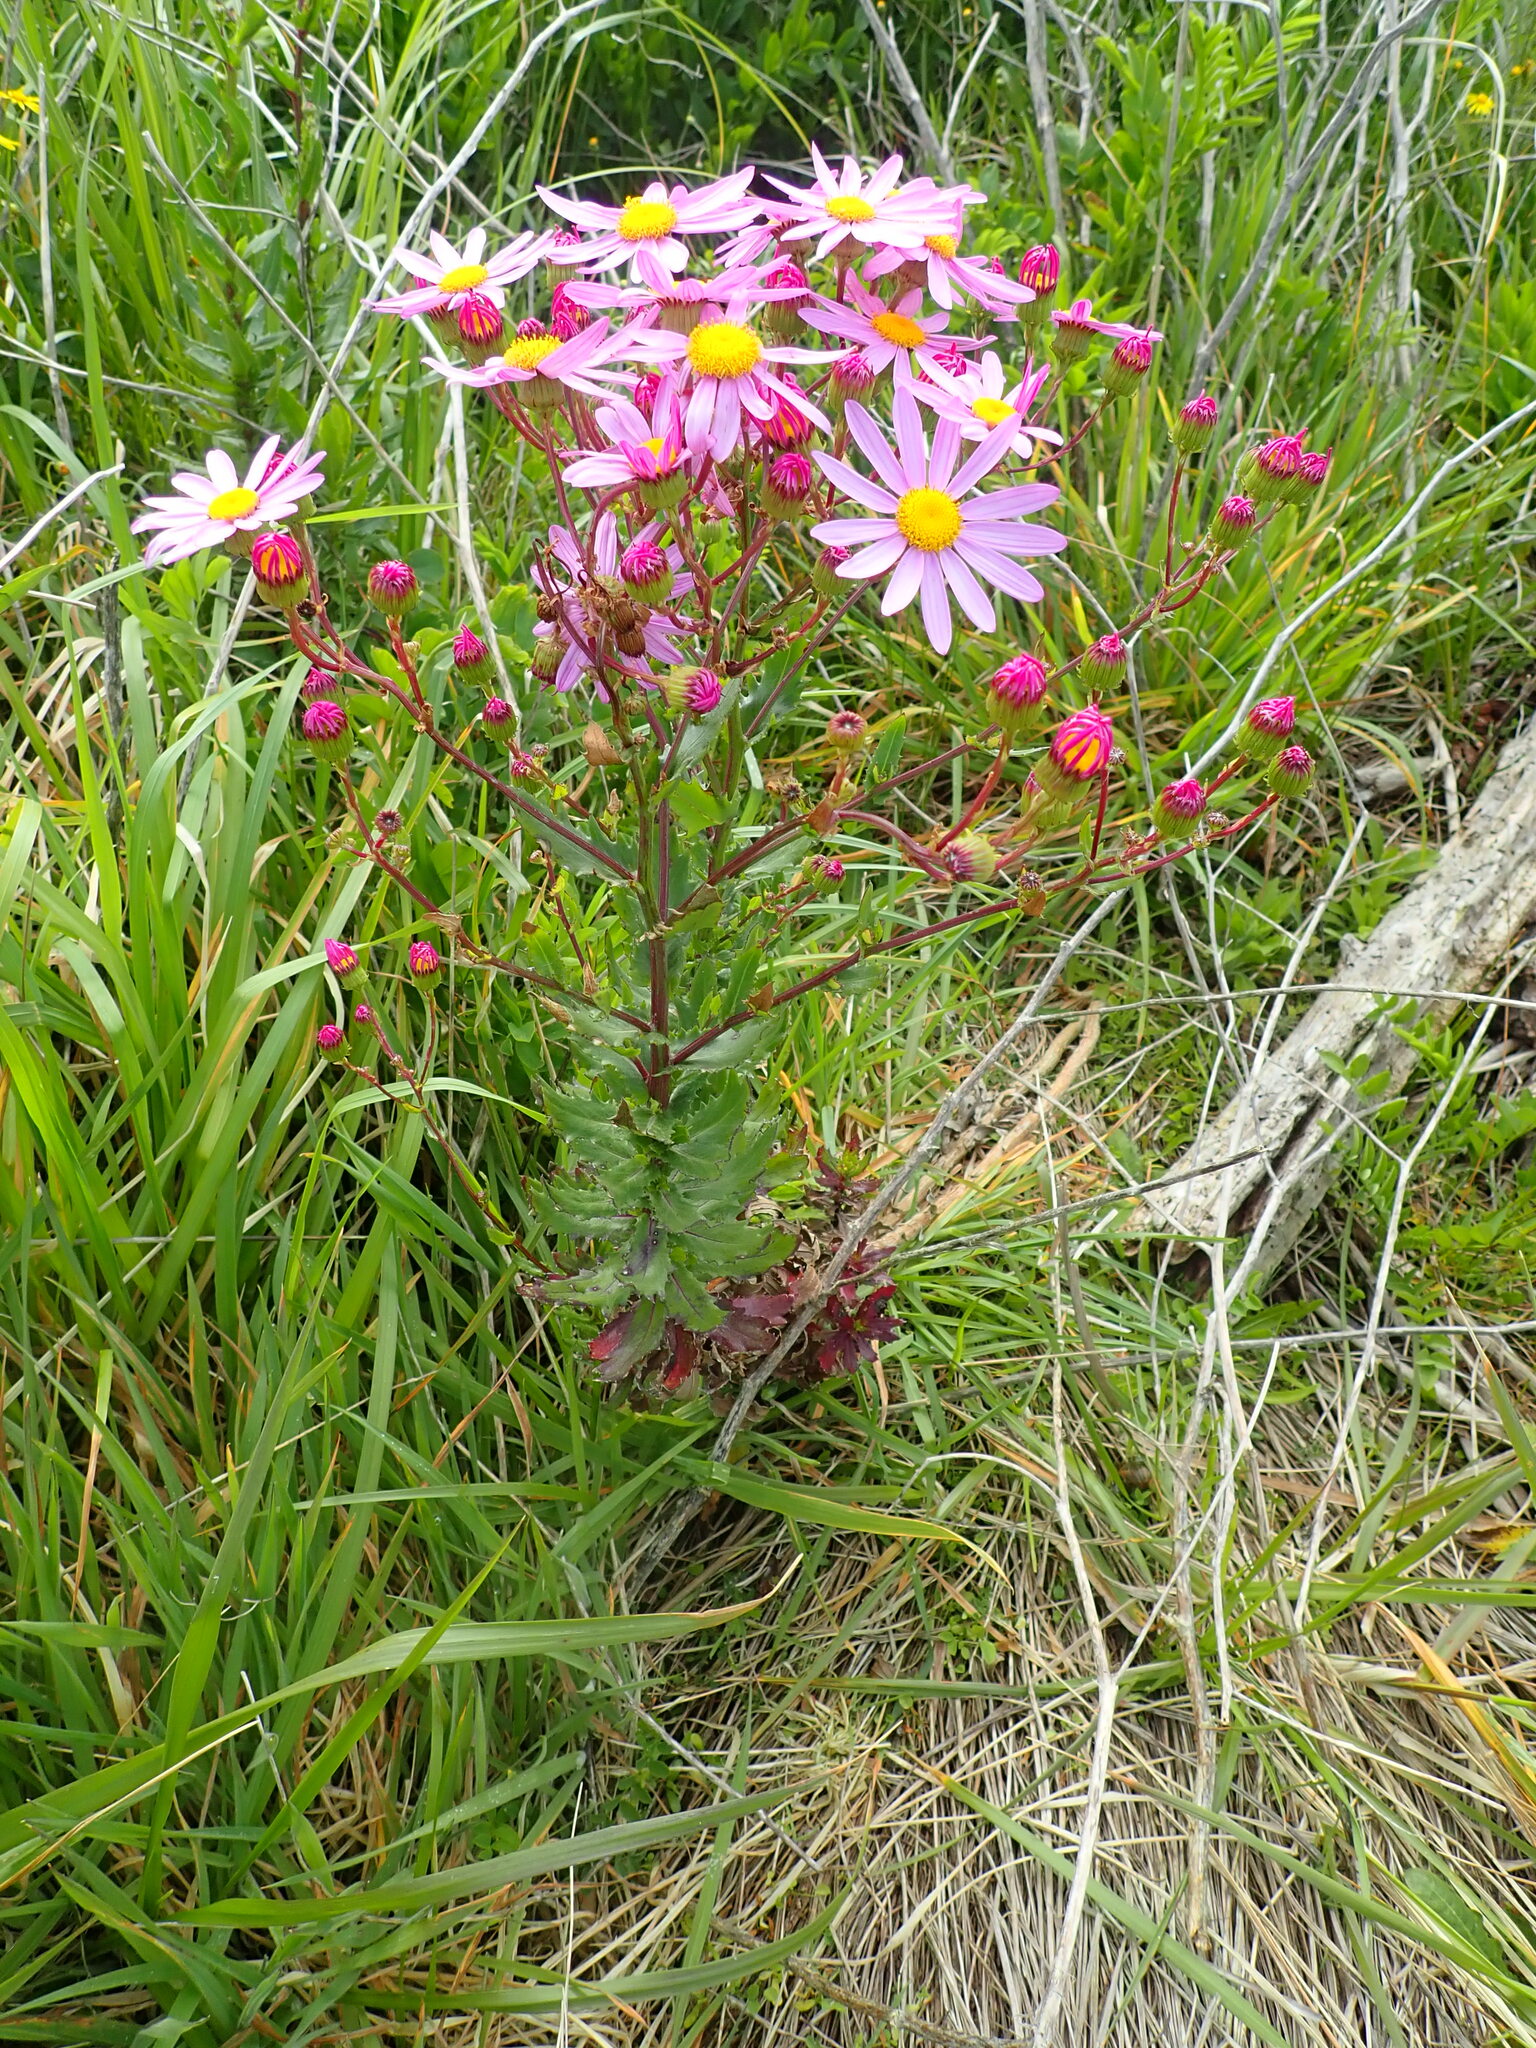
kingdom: Plantae
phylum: Tracheophyta
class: Magnoliopsida
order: Asterales
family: Asteraceae
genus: Senecio
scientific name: Senecio glastifolius
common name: Woad-leaved ragwort
